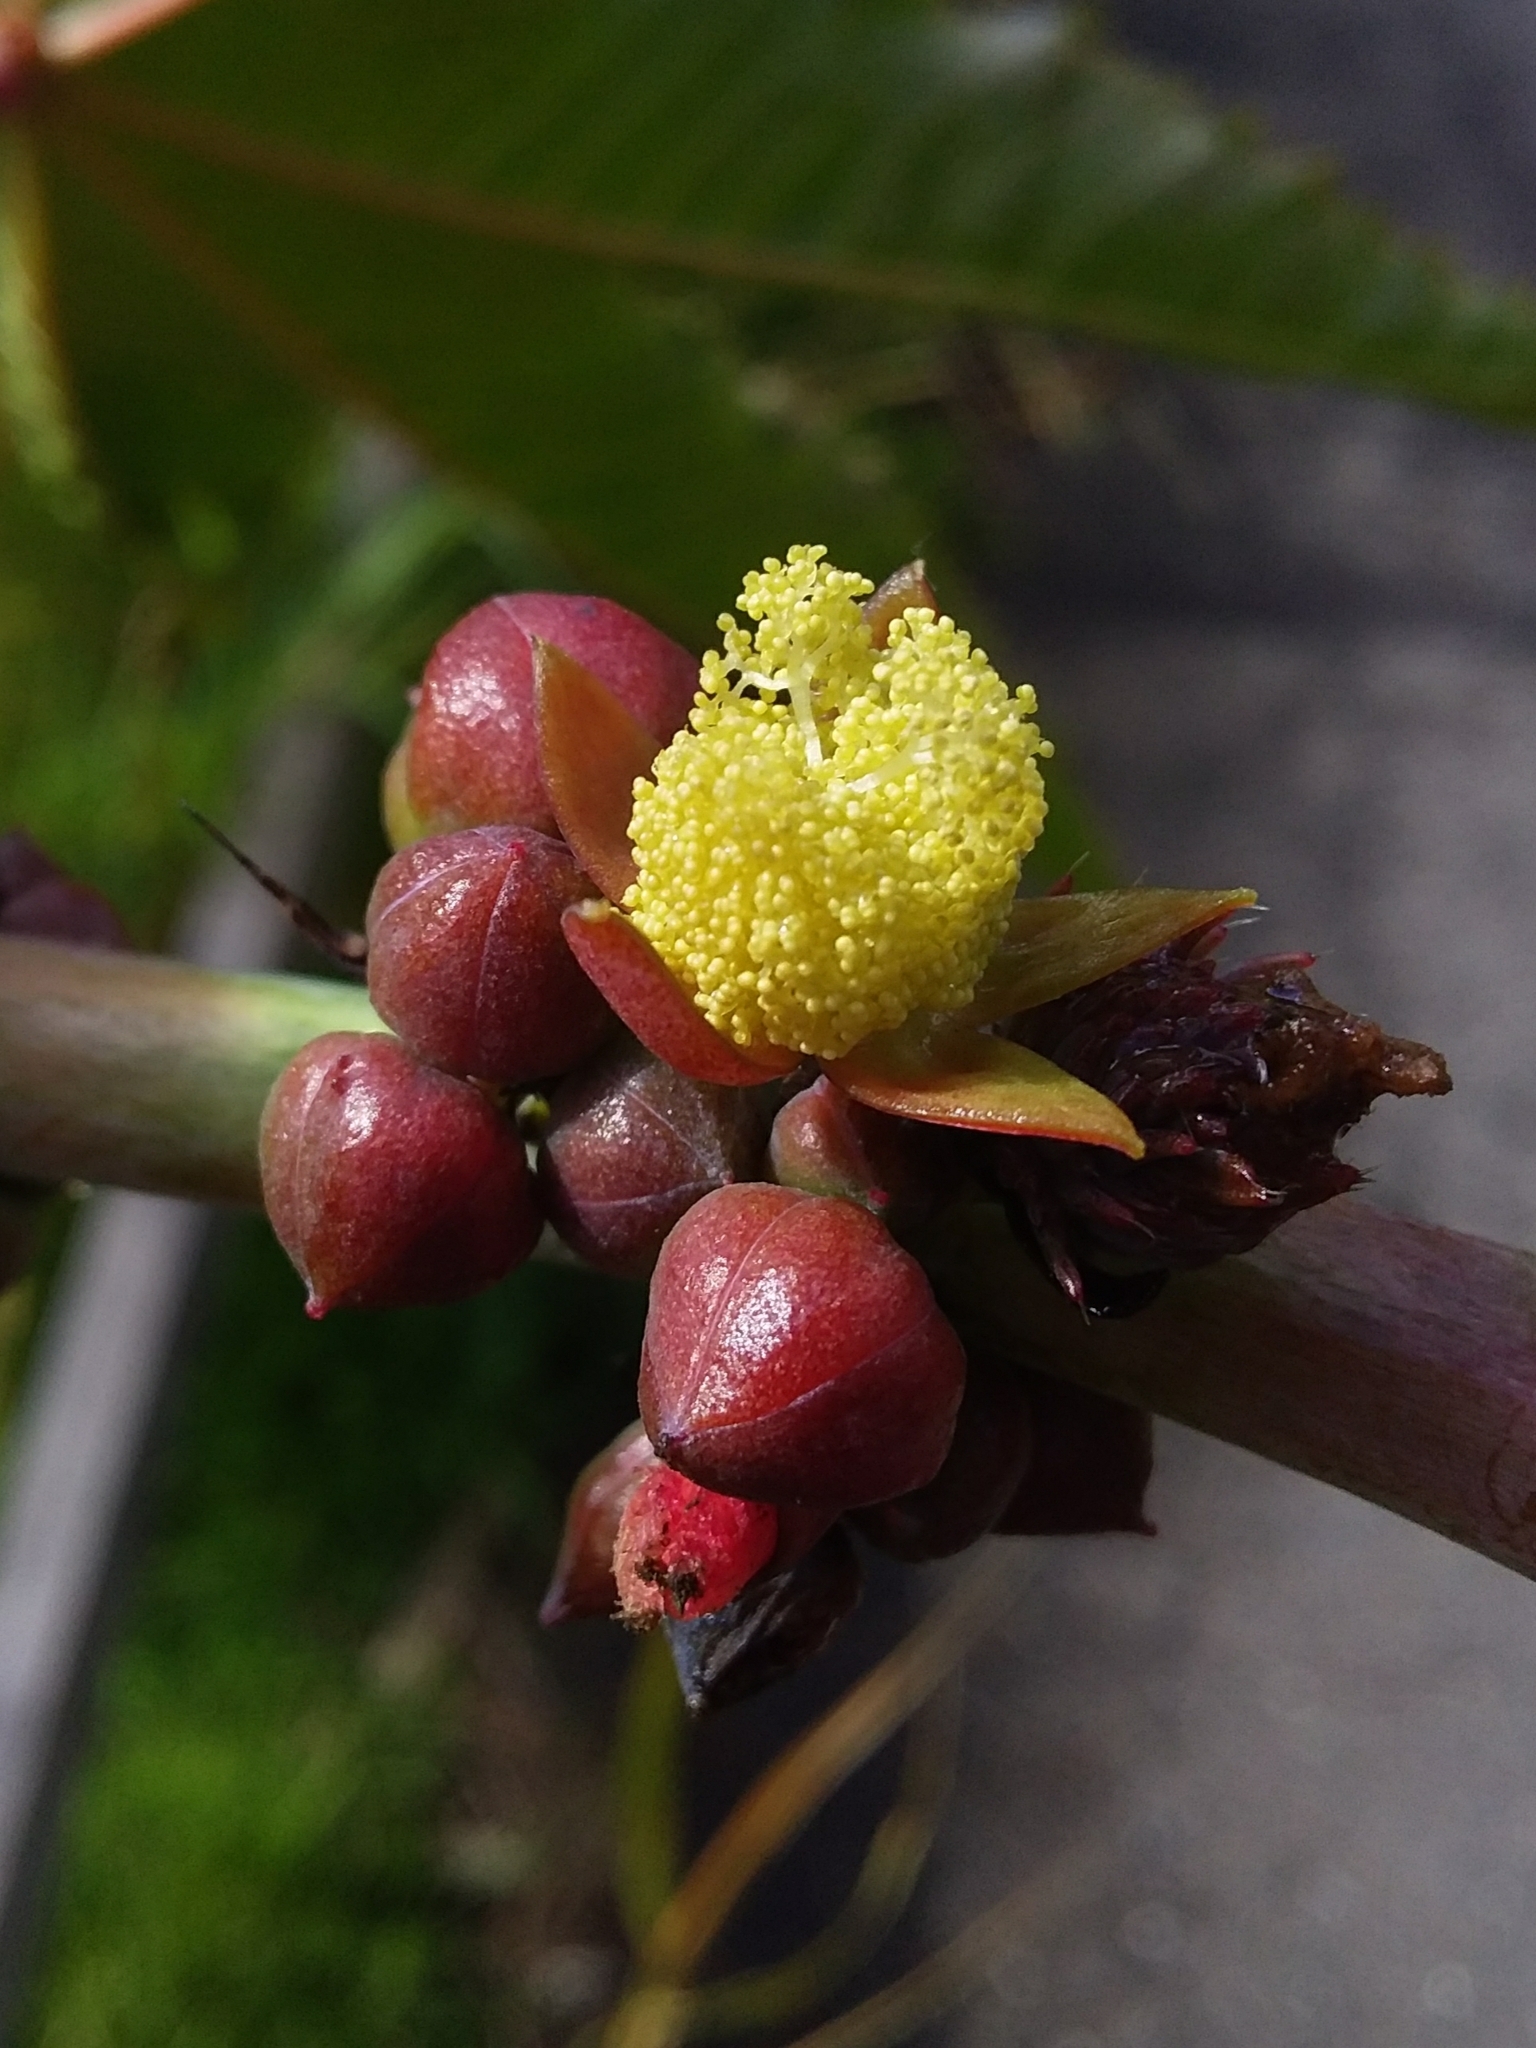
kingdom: Plantae
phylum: Tracheophyta
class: Magnoliopsida
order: Malpighiales
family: Euphorbiaceae
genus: Ricinus
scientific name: Ricinus communis
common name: Castor-oil-plant
